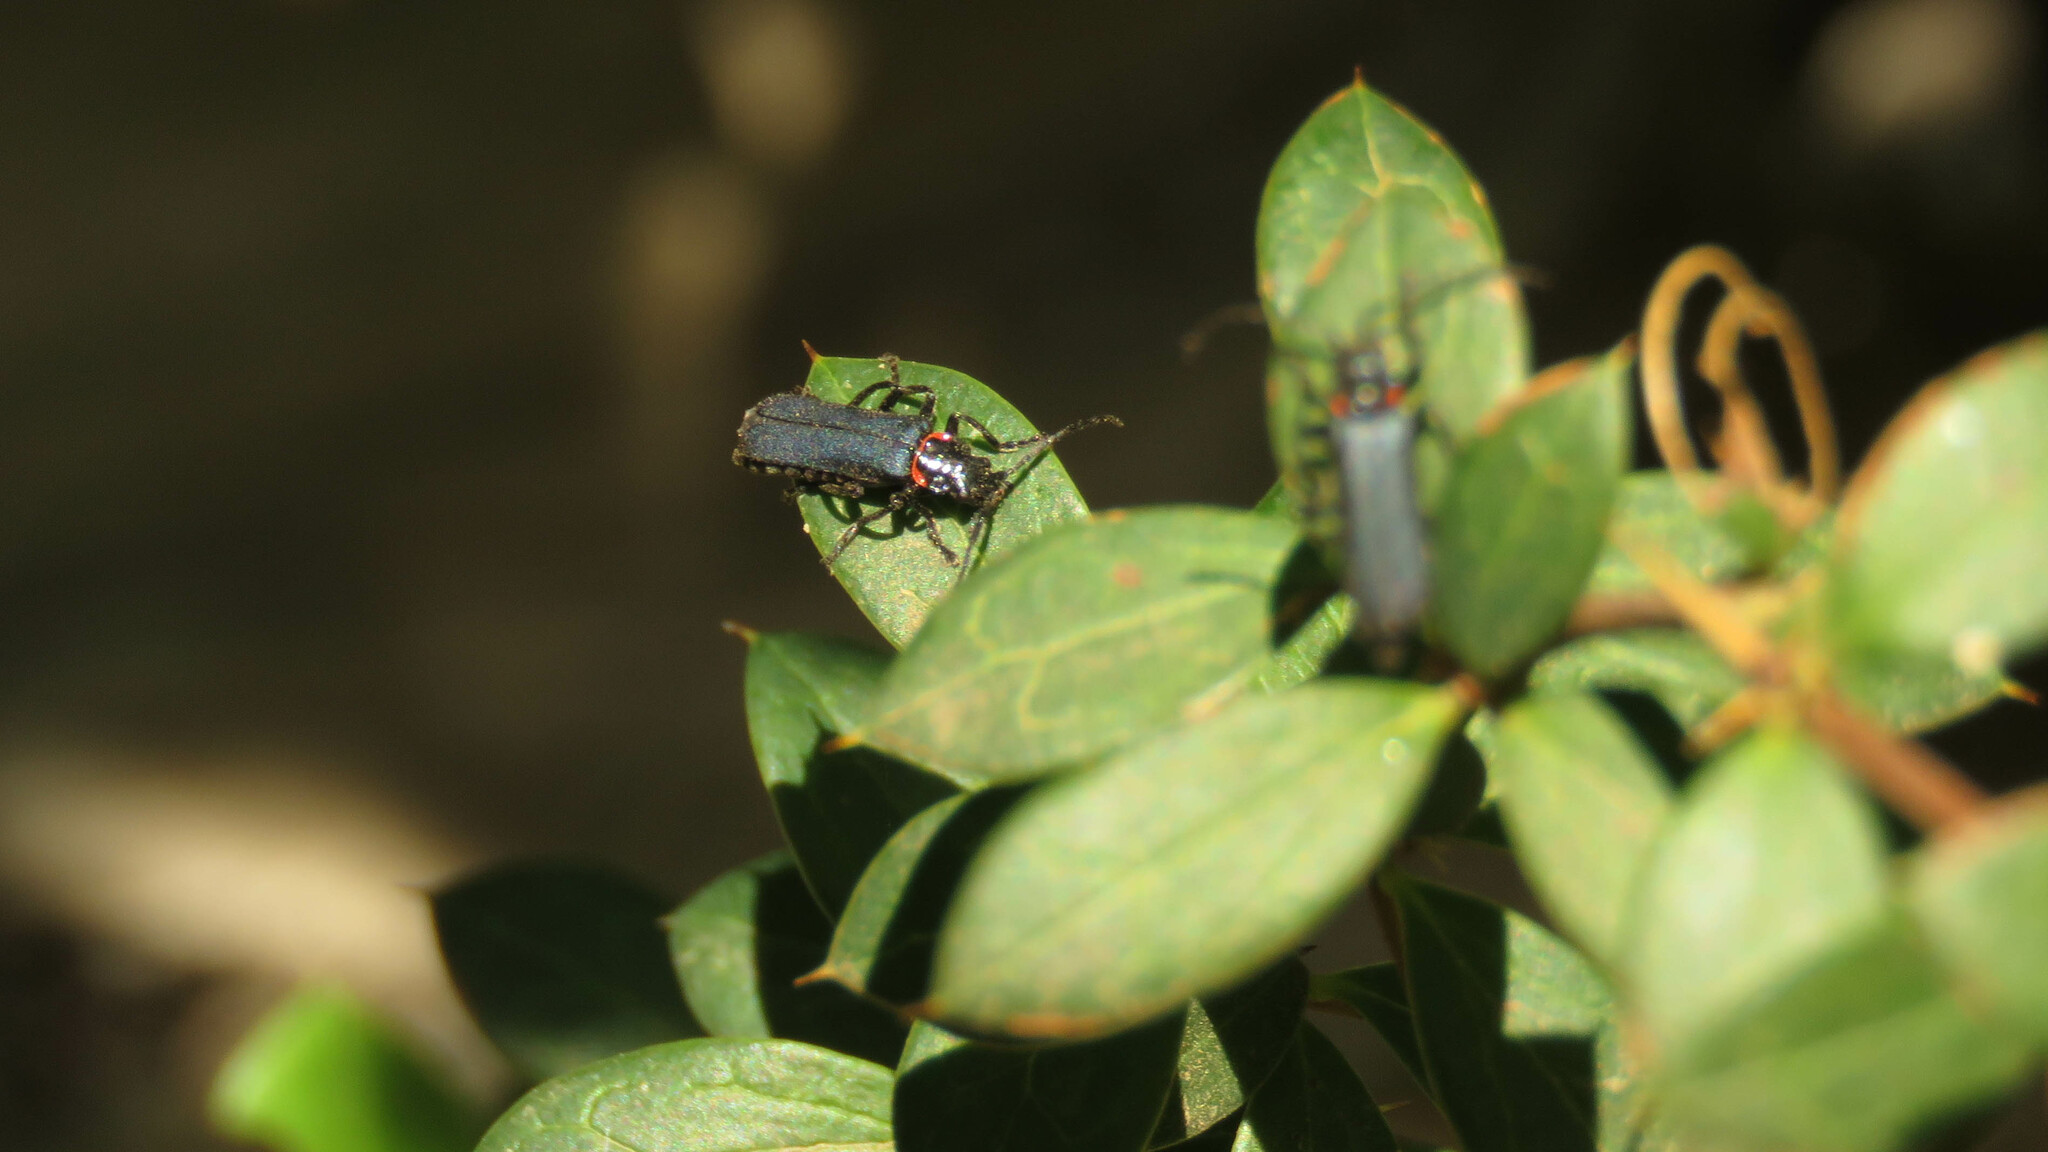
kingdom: Animalia
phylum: Arthropoda
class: Insecta
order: Coleoptera
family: Cantharidae
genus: Chauliognathus
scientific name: Chauliognathus
